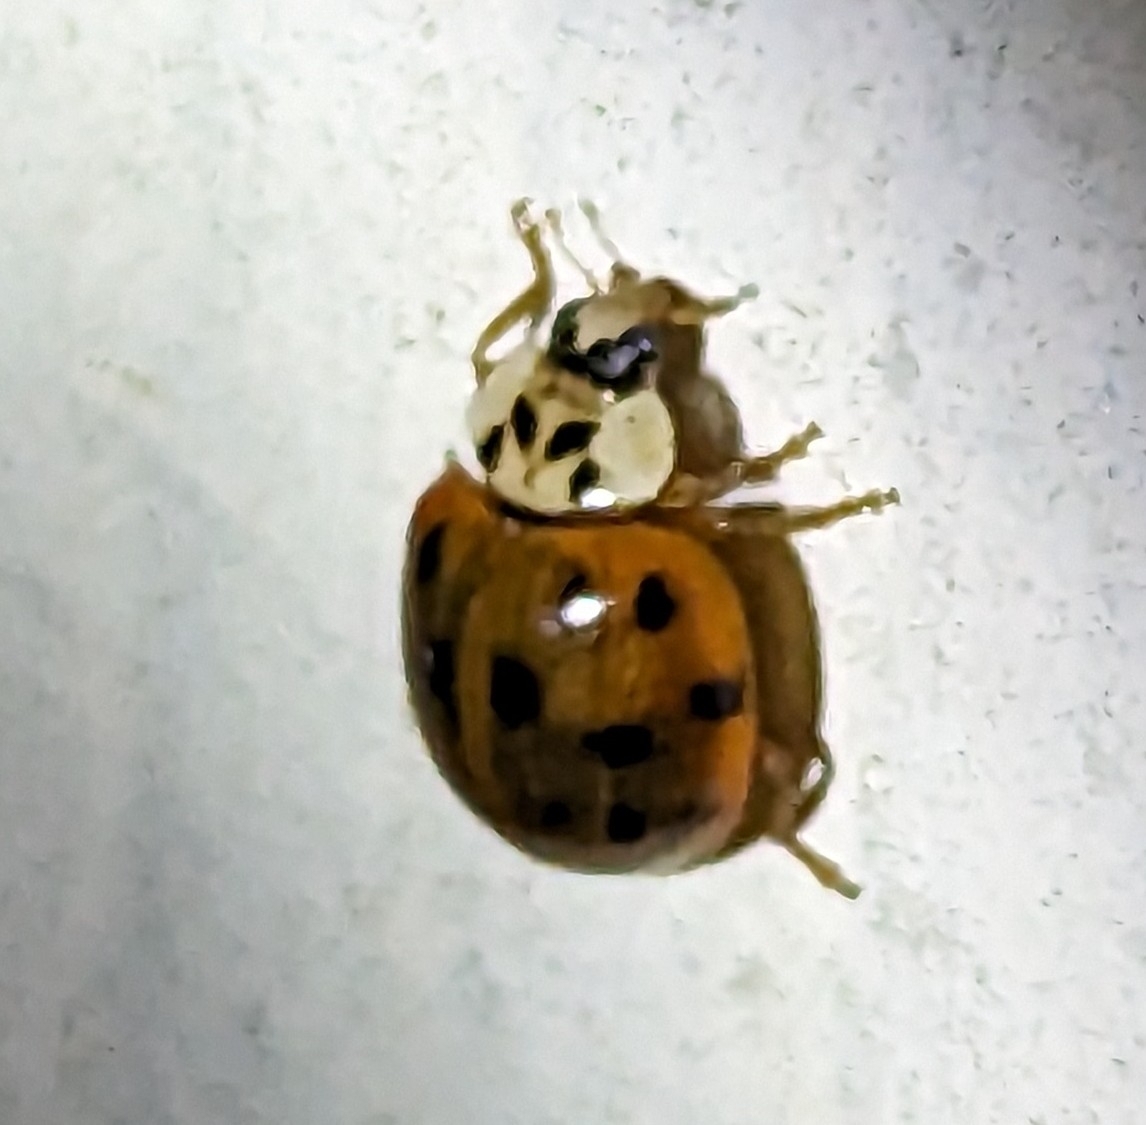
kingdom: Animalia
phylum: Arthropoda
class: Insecta
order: Coleoptera
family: Coccinellidae
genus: Harmonia
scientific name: Harmonia axyridis
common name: Harlequin ladybird
